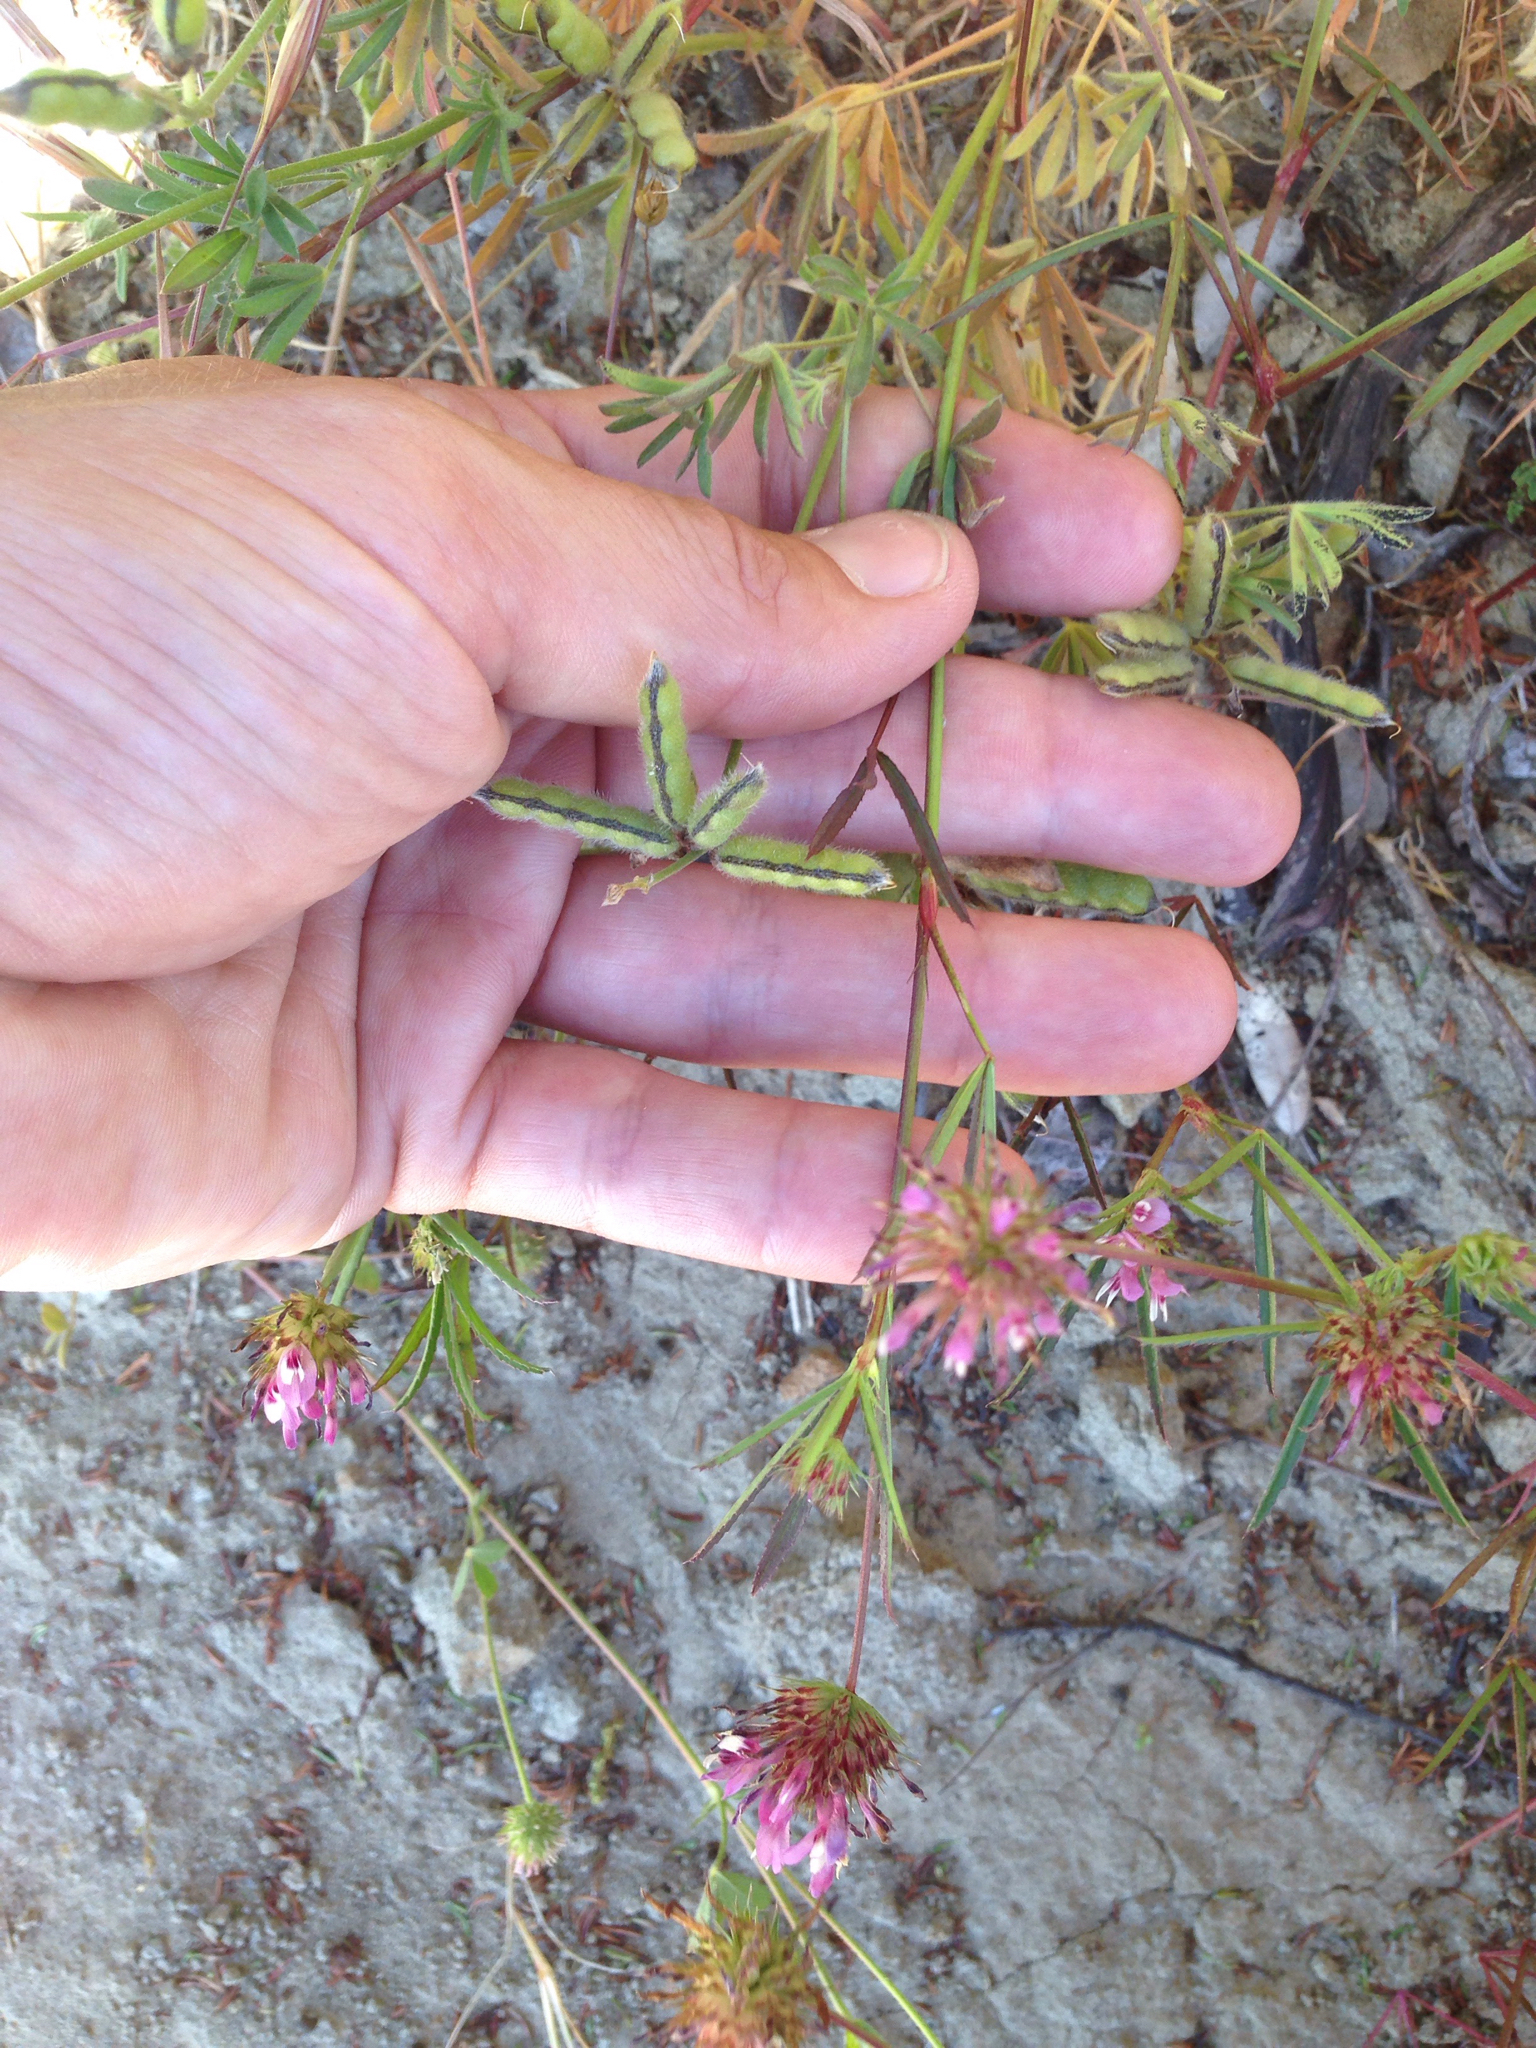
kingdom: Plantae
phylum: Tracheophyta
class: Magnoliopsida
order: Fabales
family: Fabaceae
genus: Trifolium
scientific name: Trifolium willdenovii
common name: Tomcat clover
